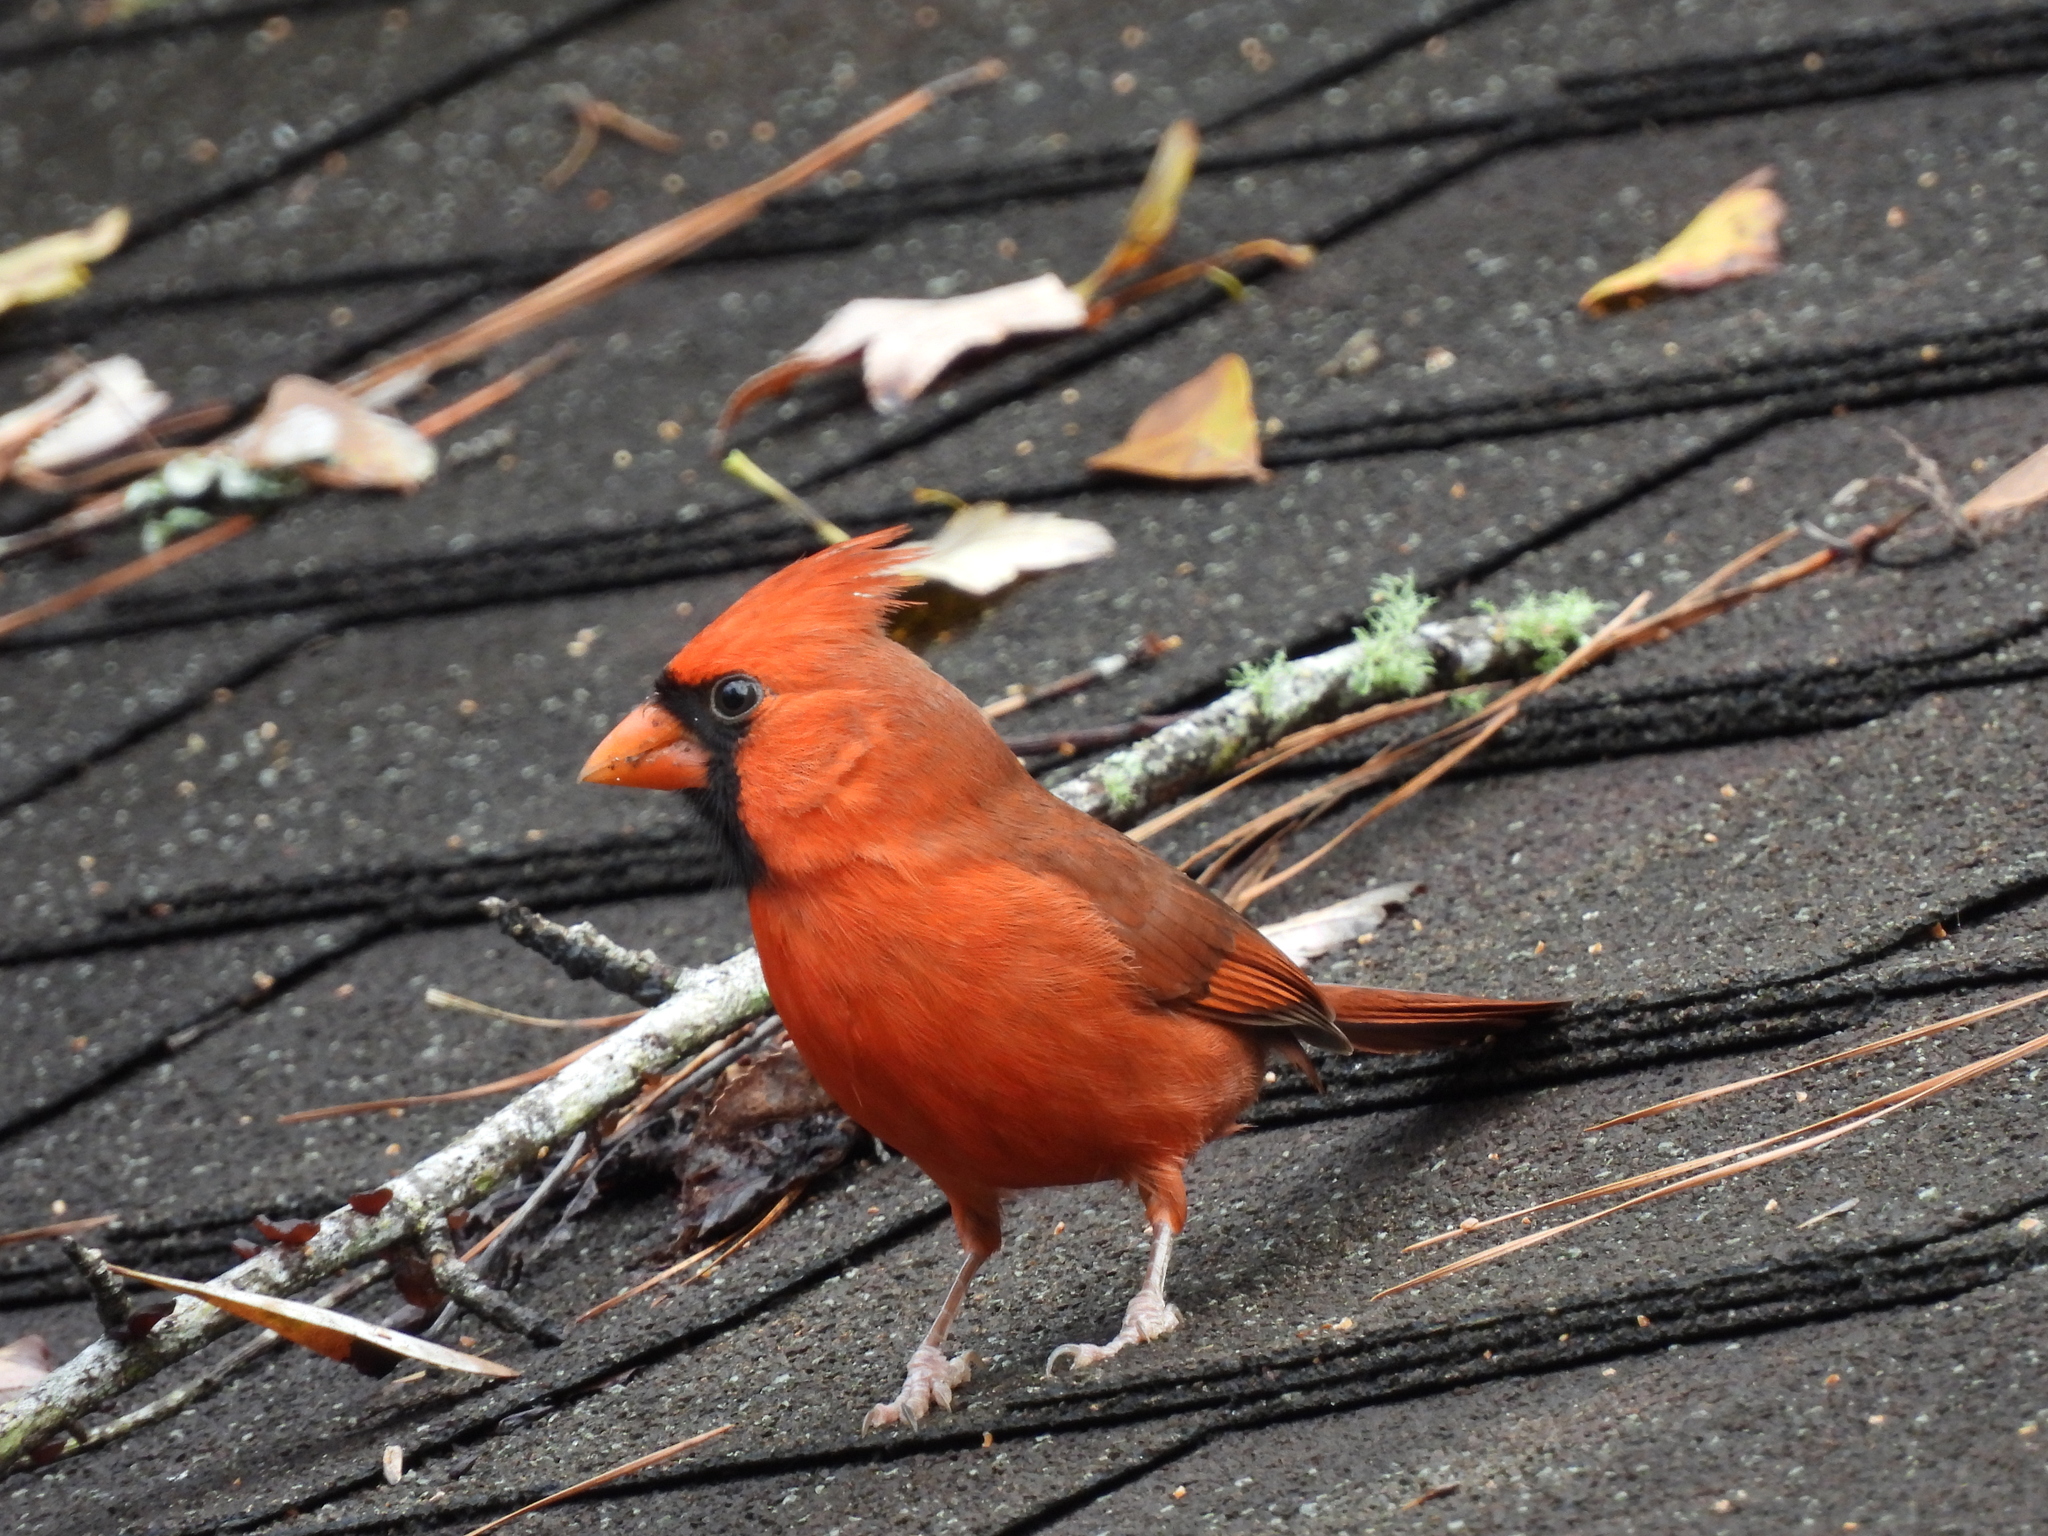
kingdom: Animalia
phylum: Chordata
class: Aves
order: Passeriformes
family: Cardinalidae
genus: Cardinalis
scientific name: Cardinalis cardinalis
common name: Northern cardinal
